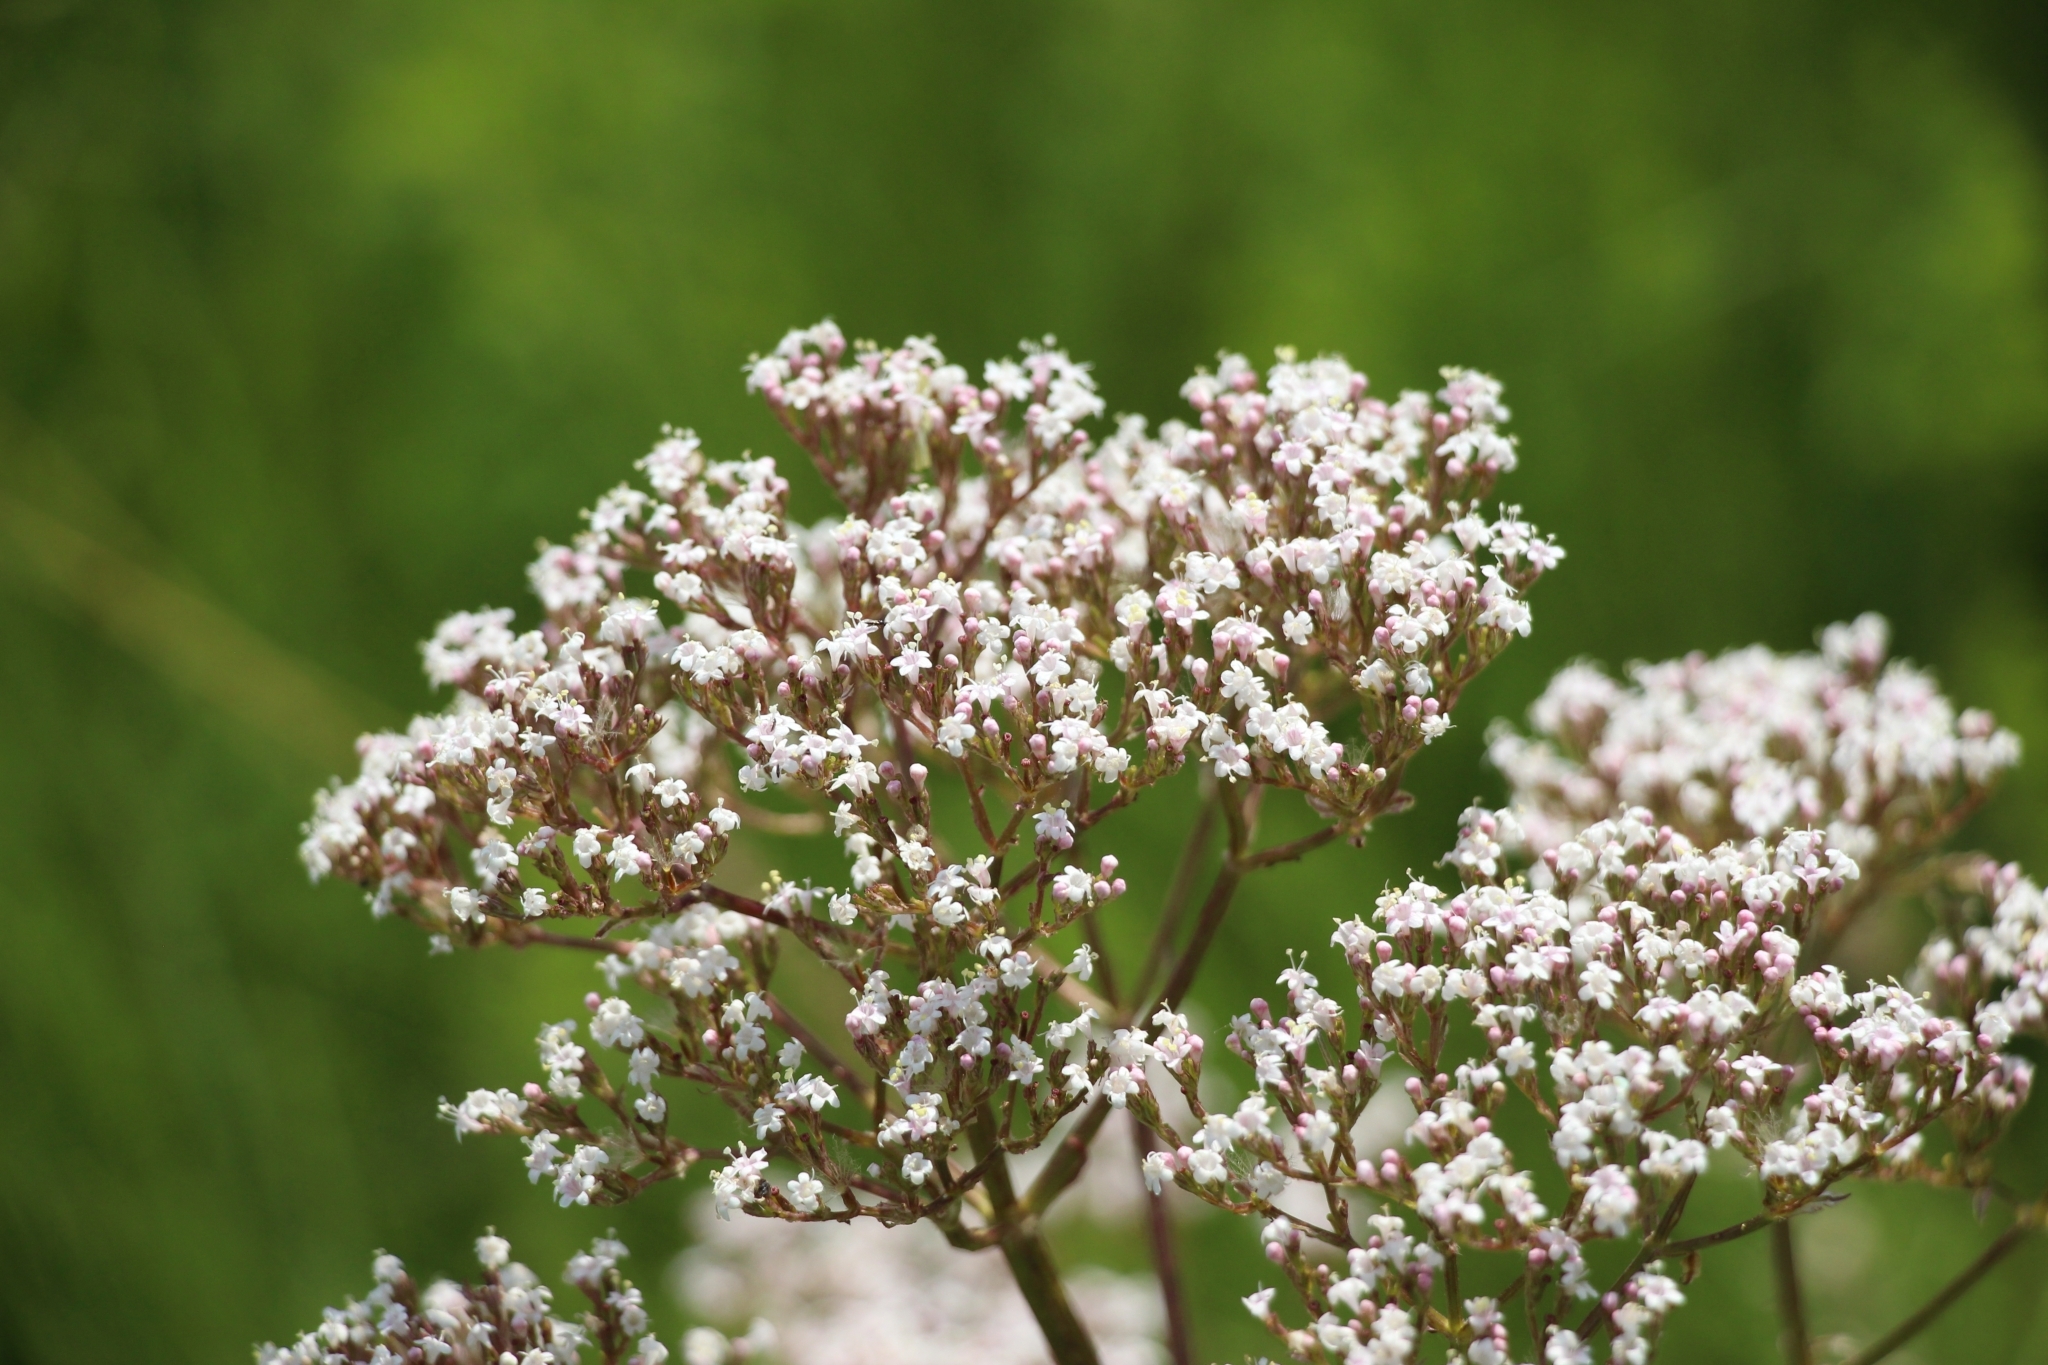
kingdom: Plantae
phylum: Tracheophyta
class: Magnoliopsida
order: Dipsacales
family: Caprifoliaceae
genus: Valeriana
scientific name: Valeriana officinalis
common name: Common valerian
